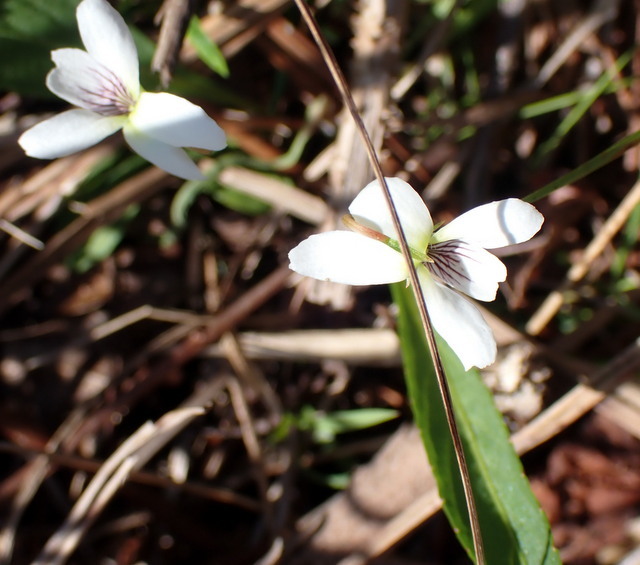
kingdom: Plantae
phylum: Tracheophyta
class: Magnoliopsida
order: Malpighiales
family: Violaceae
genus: Viola
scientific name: Viola lanceolata
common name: Bog white violet
